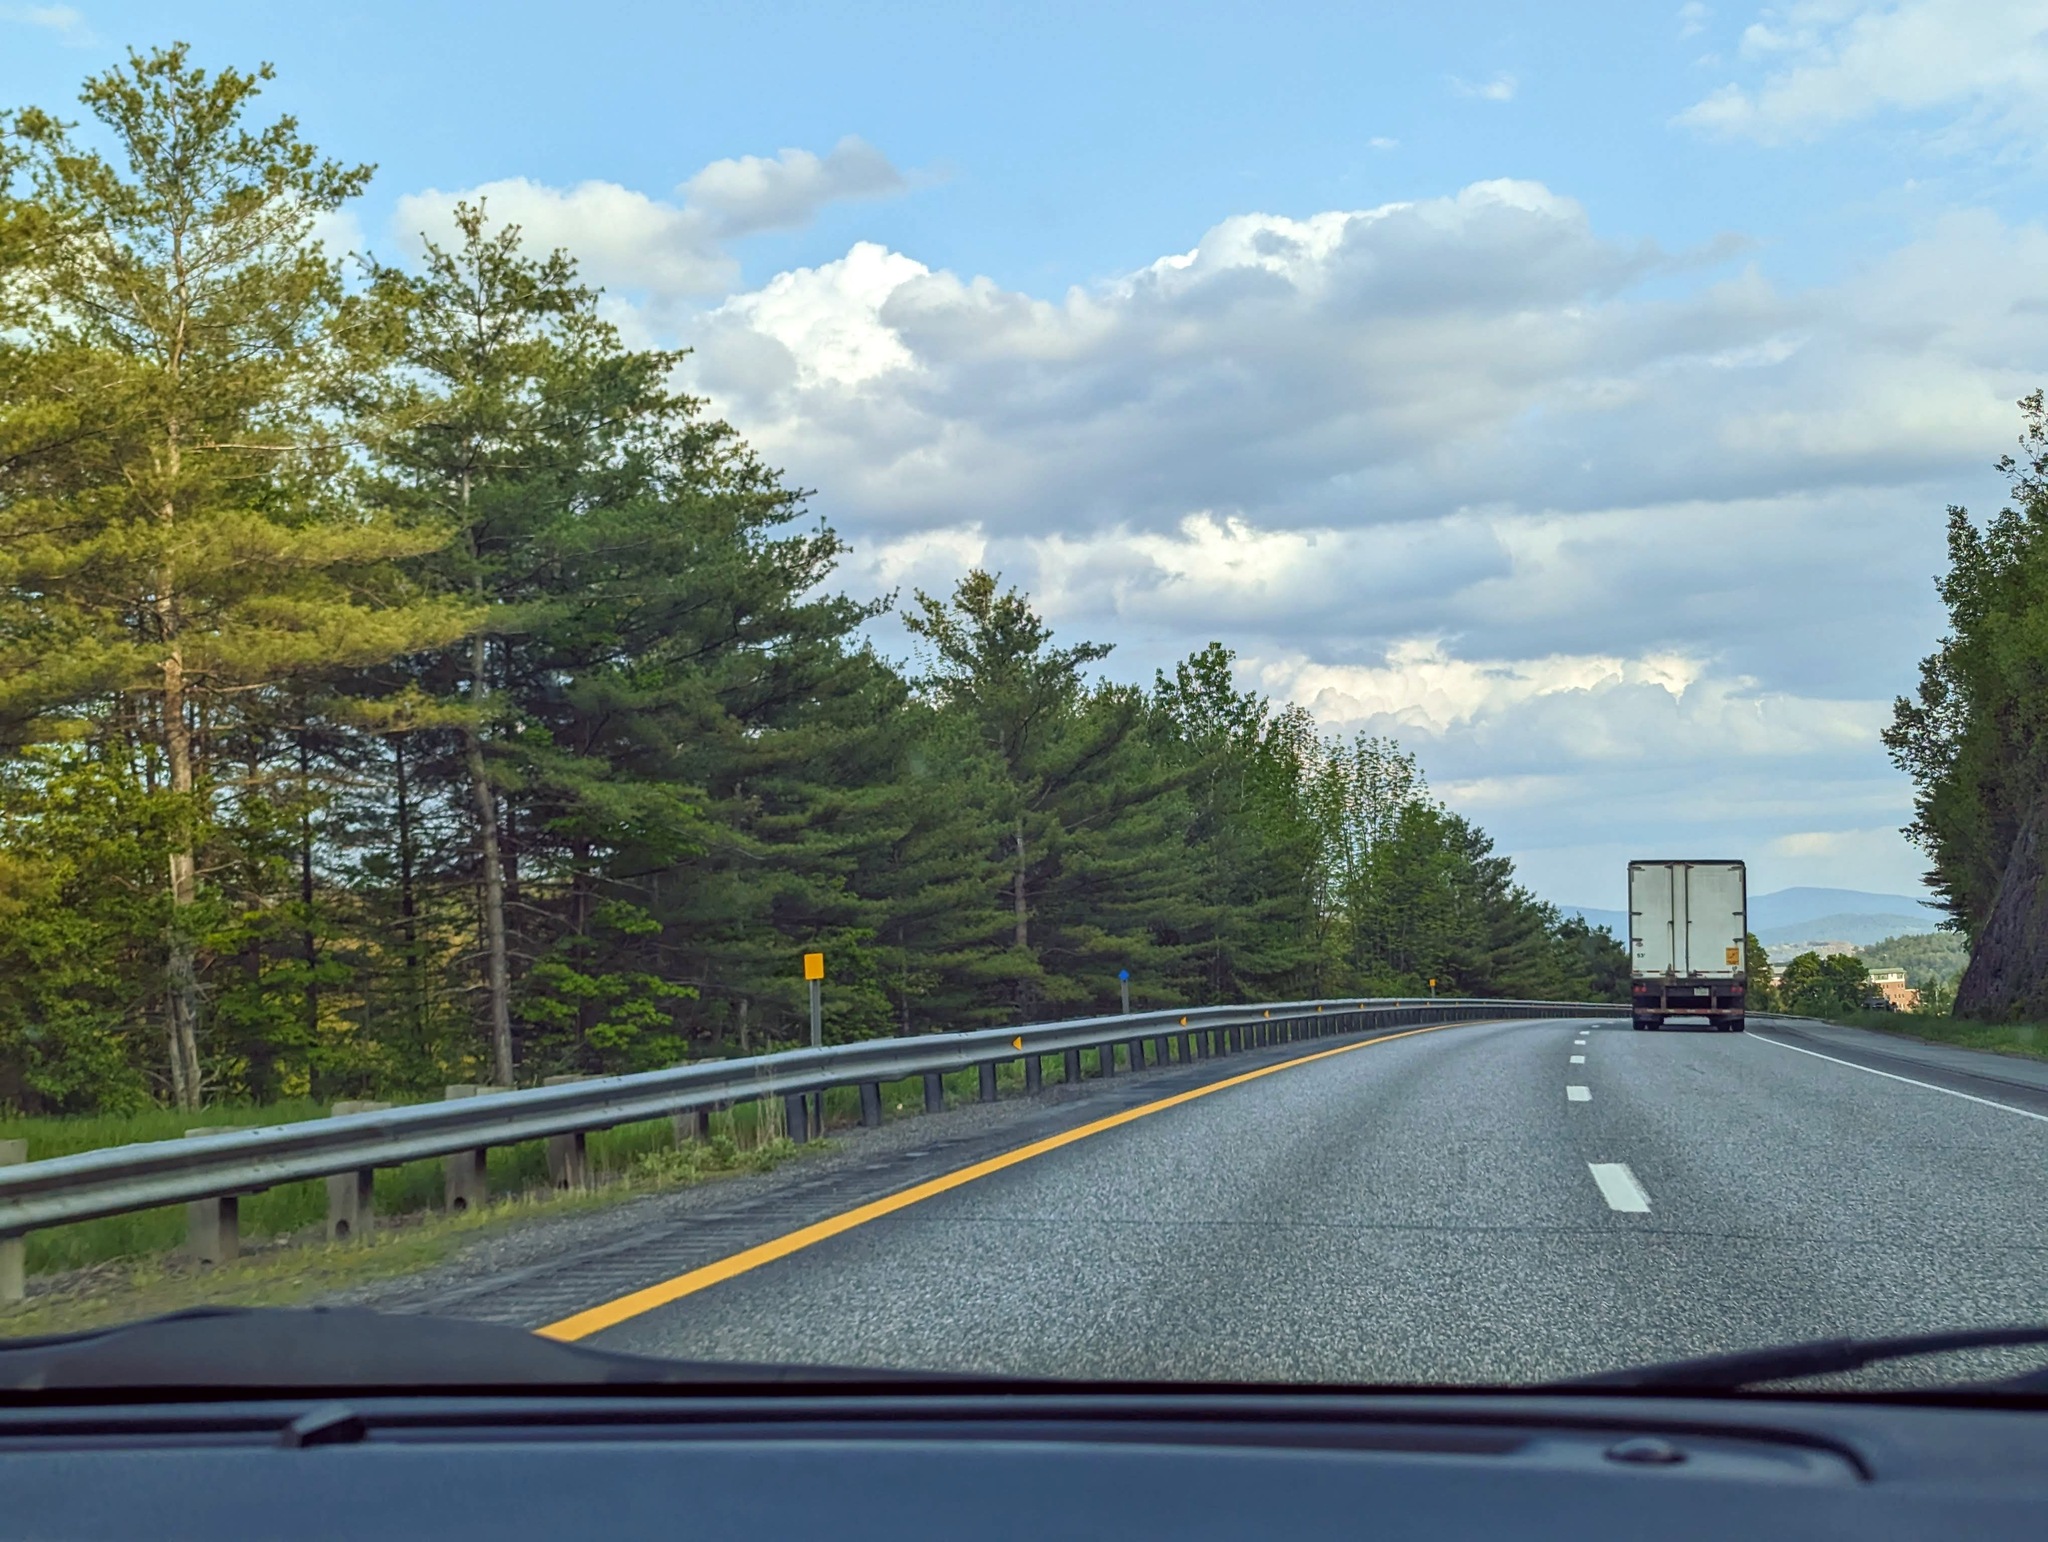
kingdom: Plantae
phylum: Tracheophyta
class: Pinopsida
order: Pinales
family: Pinaceae
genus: Pinus
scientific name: Pinus strobus
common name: Weymouth pine
